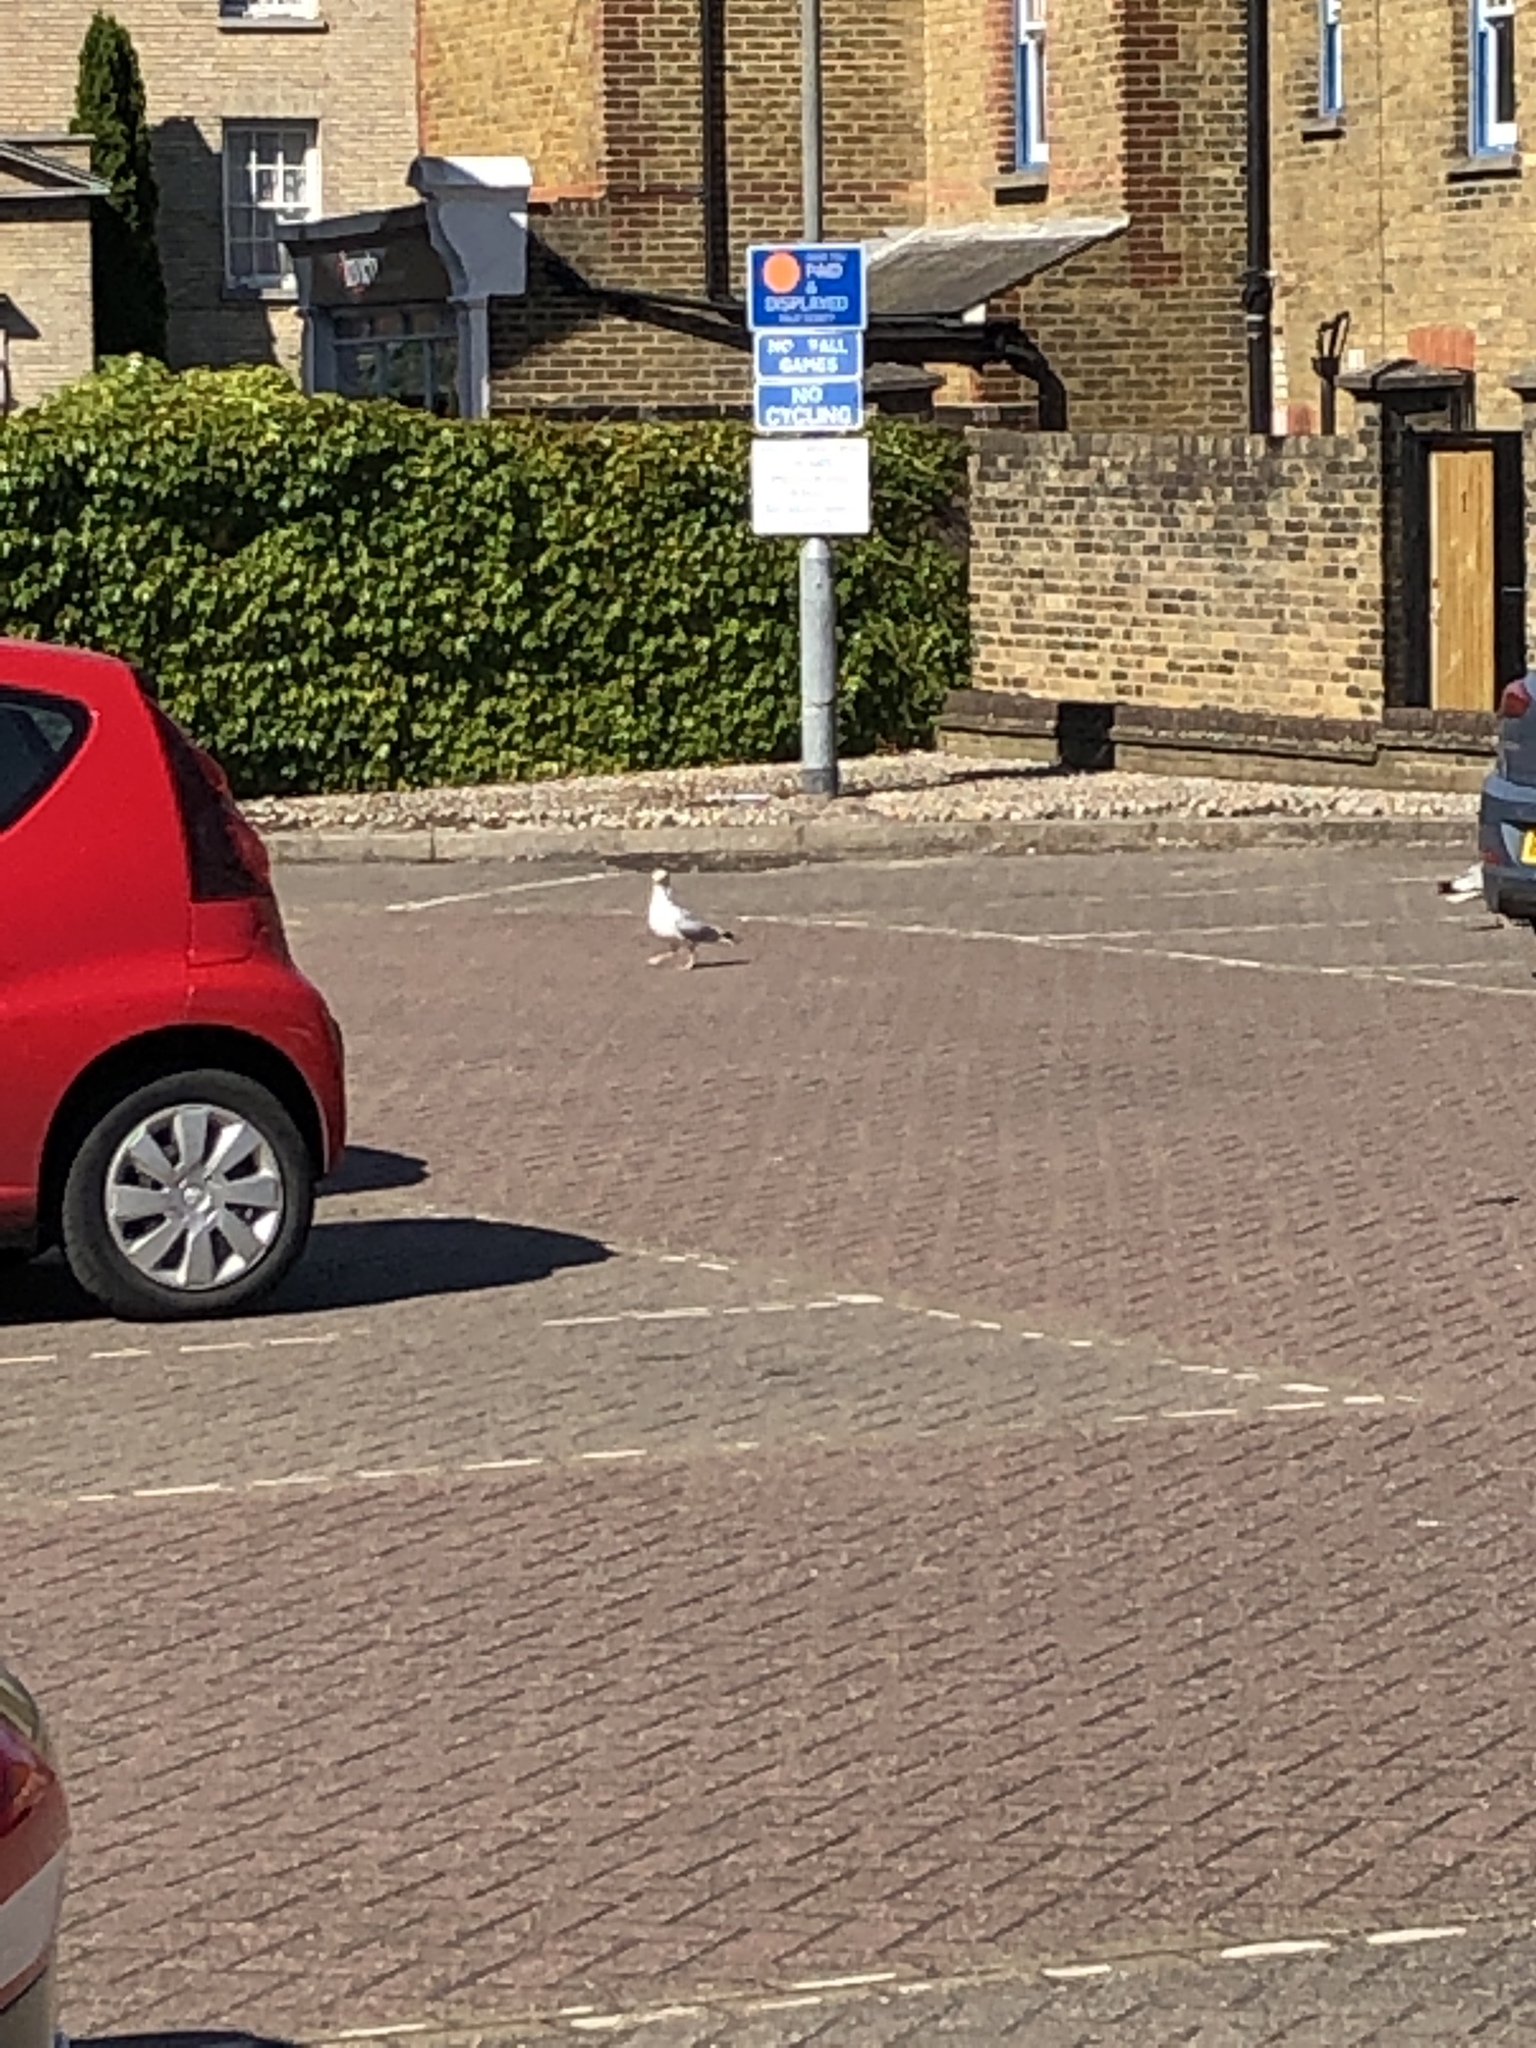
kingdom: Animalia
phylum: Chordata
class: Aves
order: Charadriiformes
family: Laridae
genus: Larus
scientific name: Larus argentatus
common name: Herring gull
